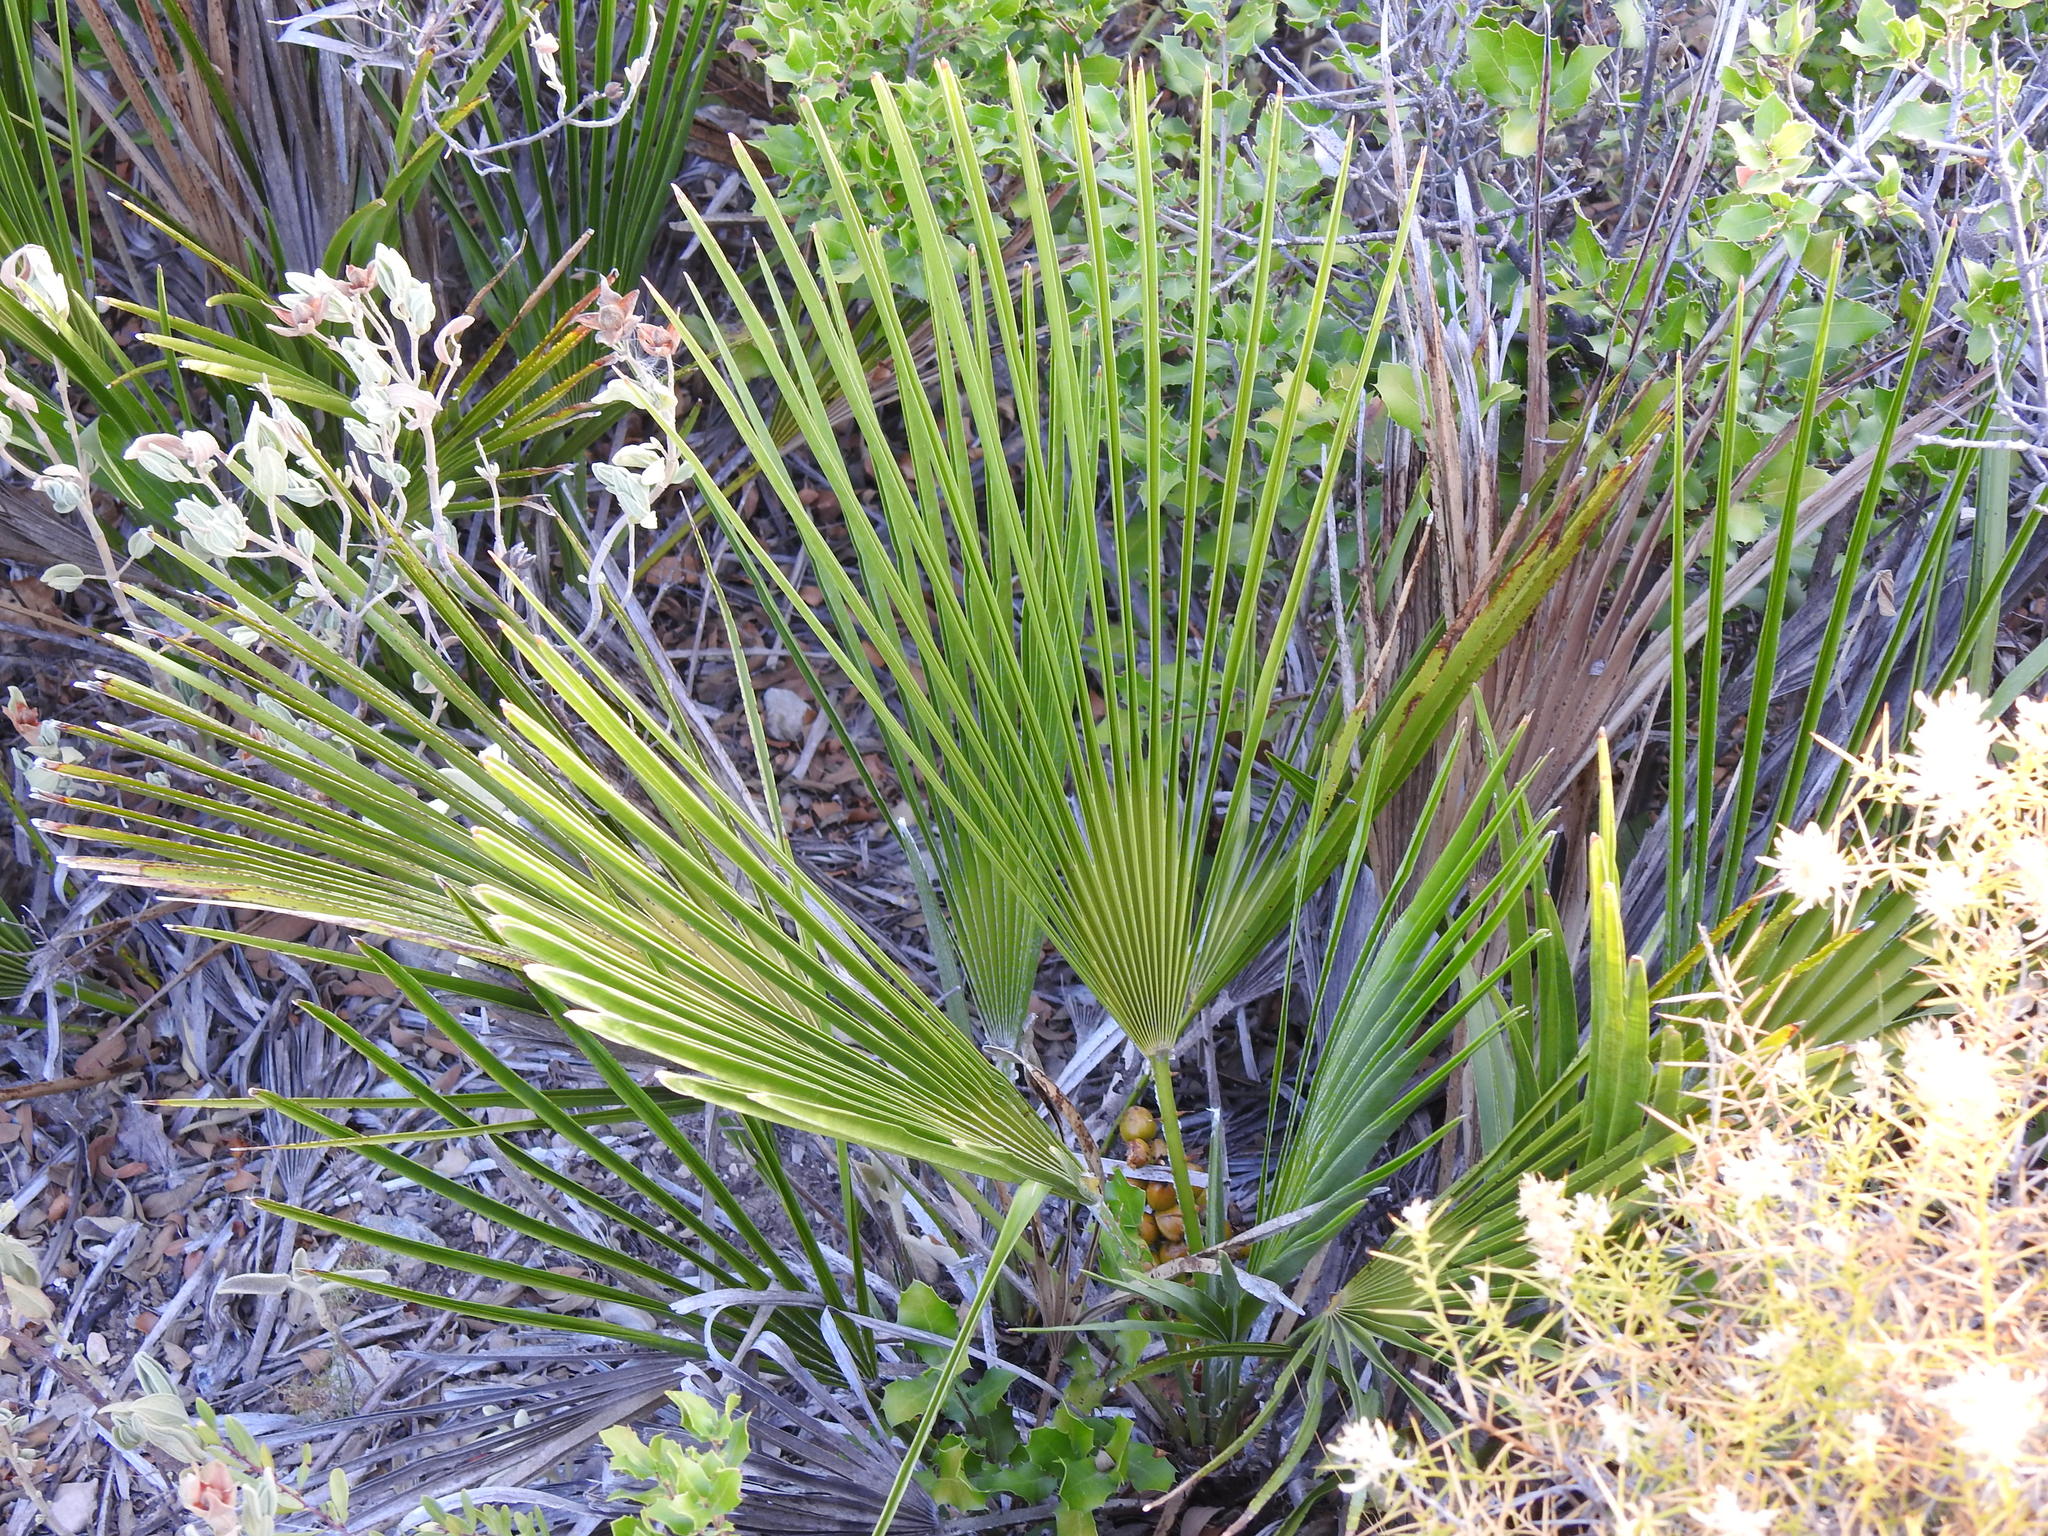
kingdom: Plantae
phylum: Tracheophyta
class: Liliopsida
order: Arecales
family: Arecaceae
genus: Chamaerops
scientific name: Chamaerops humilis
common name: Dwarf fan palm
